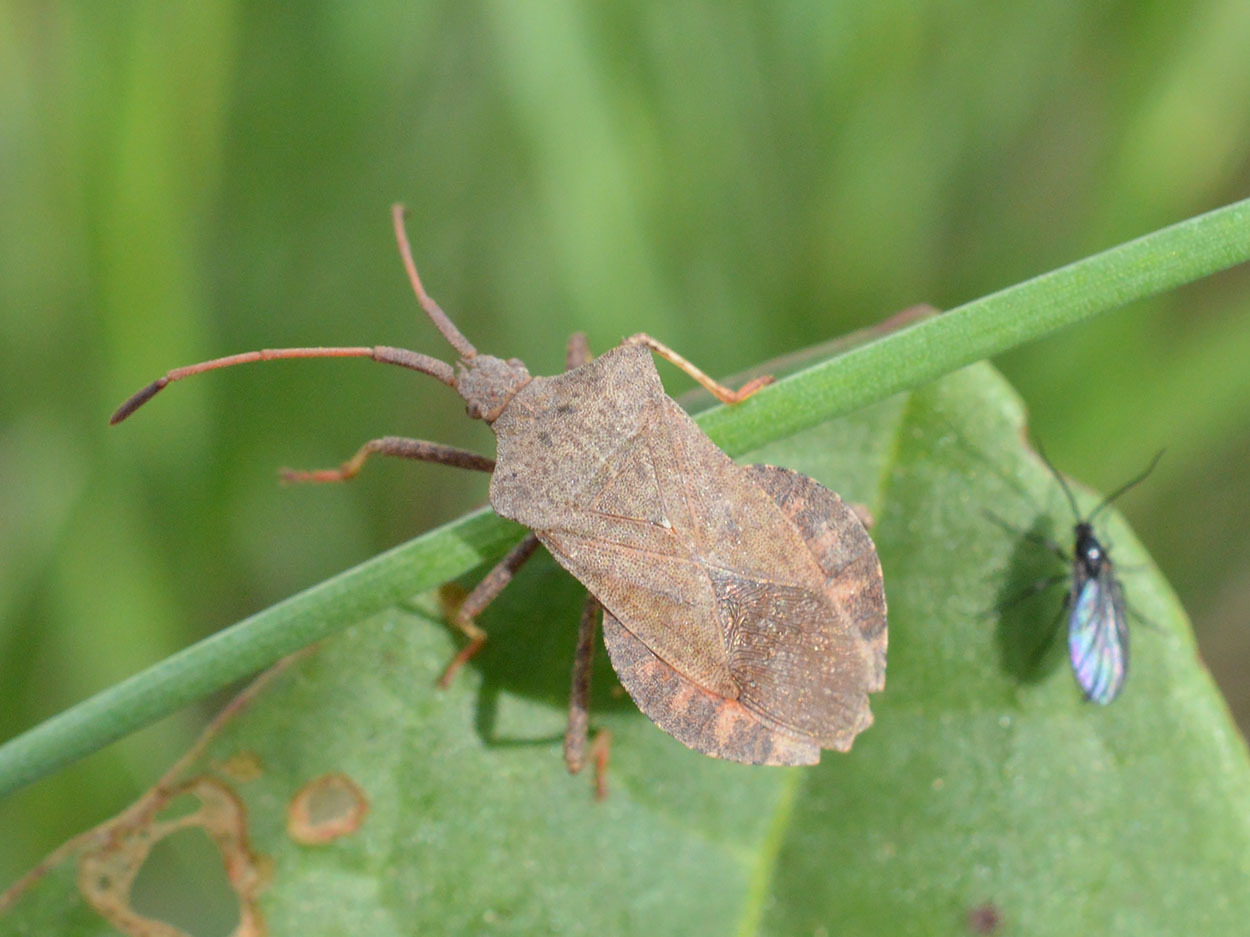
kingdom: Animalia
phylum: Arthropoda
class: Insecta
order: Hemiptera
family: Coreidae
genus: Coreus
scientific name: Coreus marginatus
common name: Dock bug
